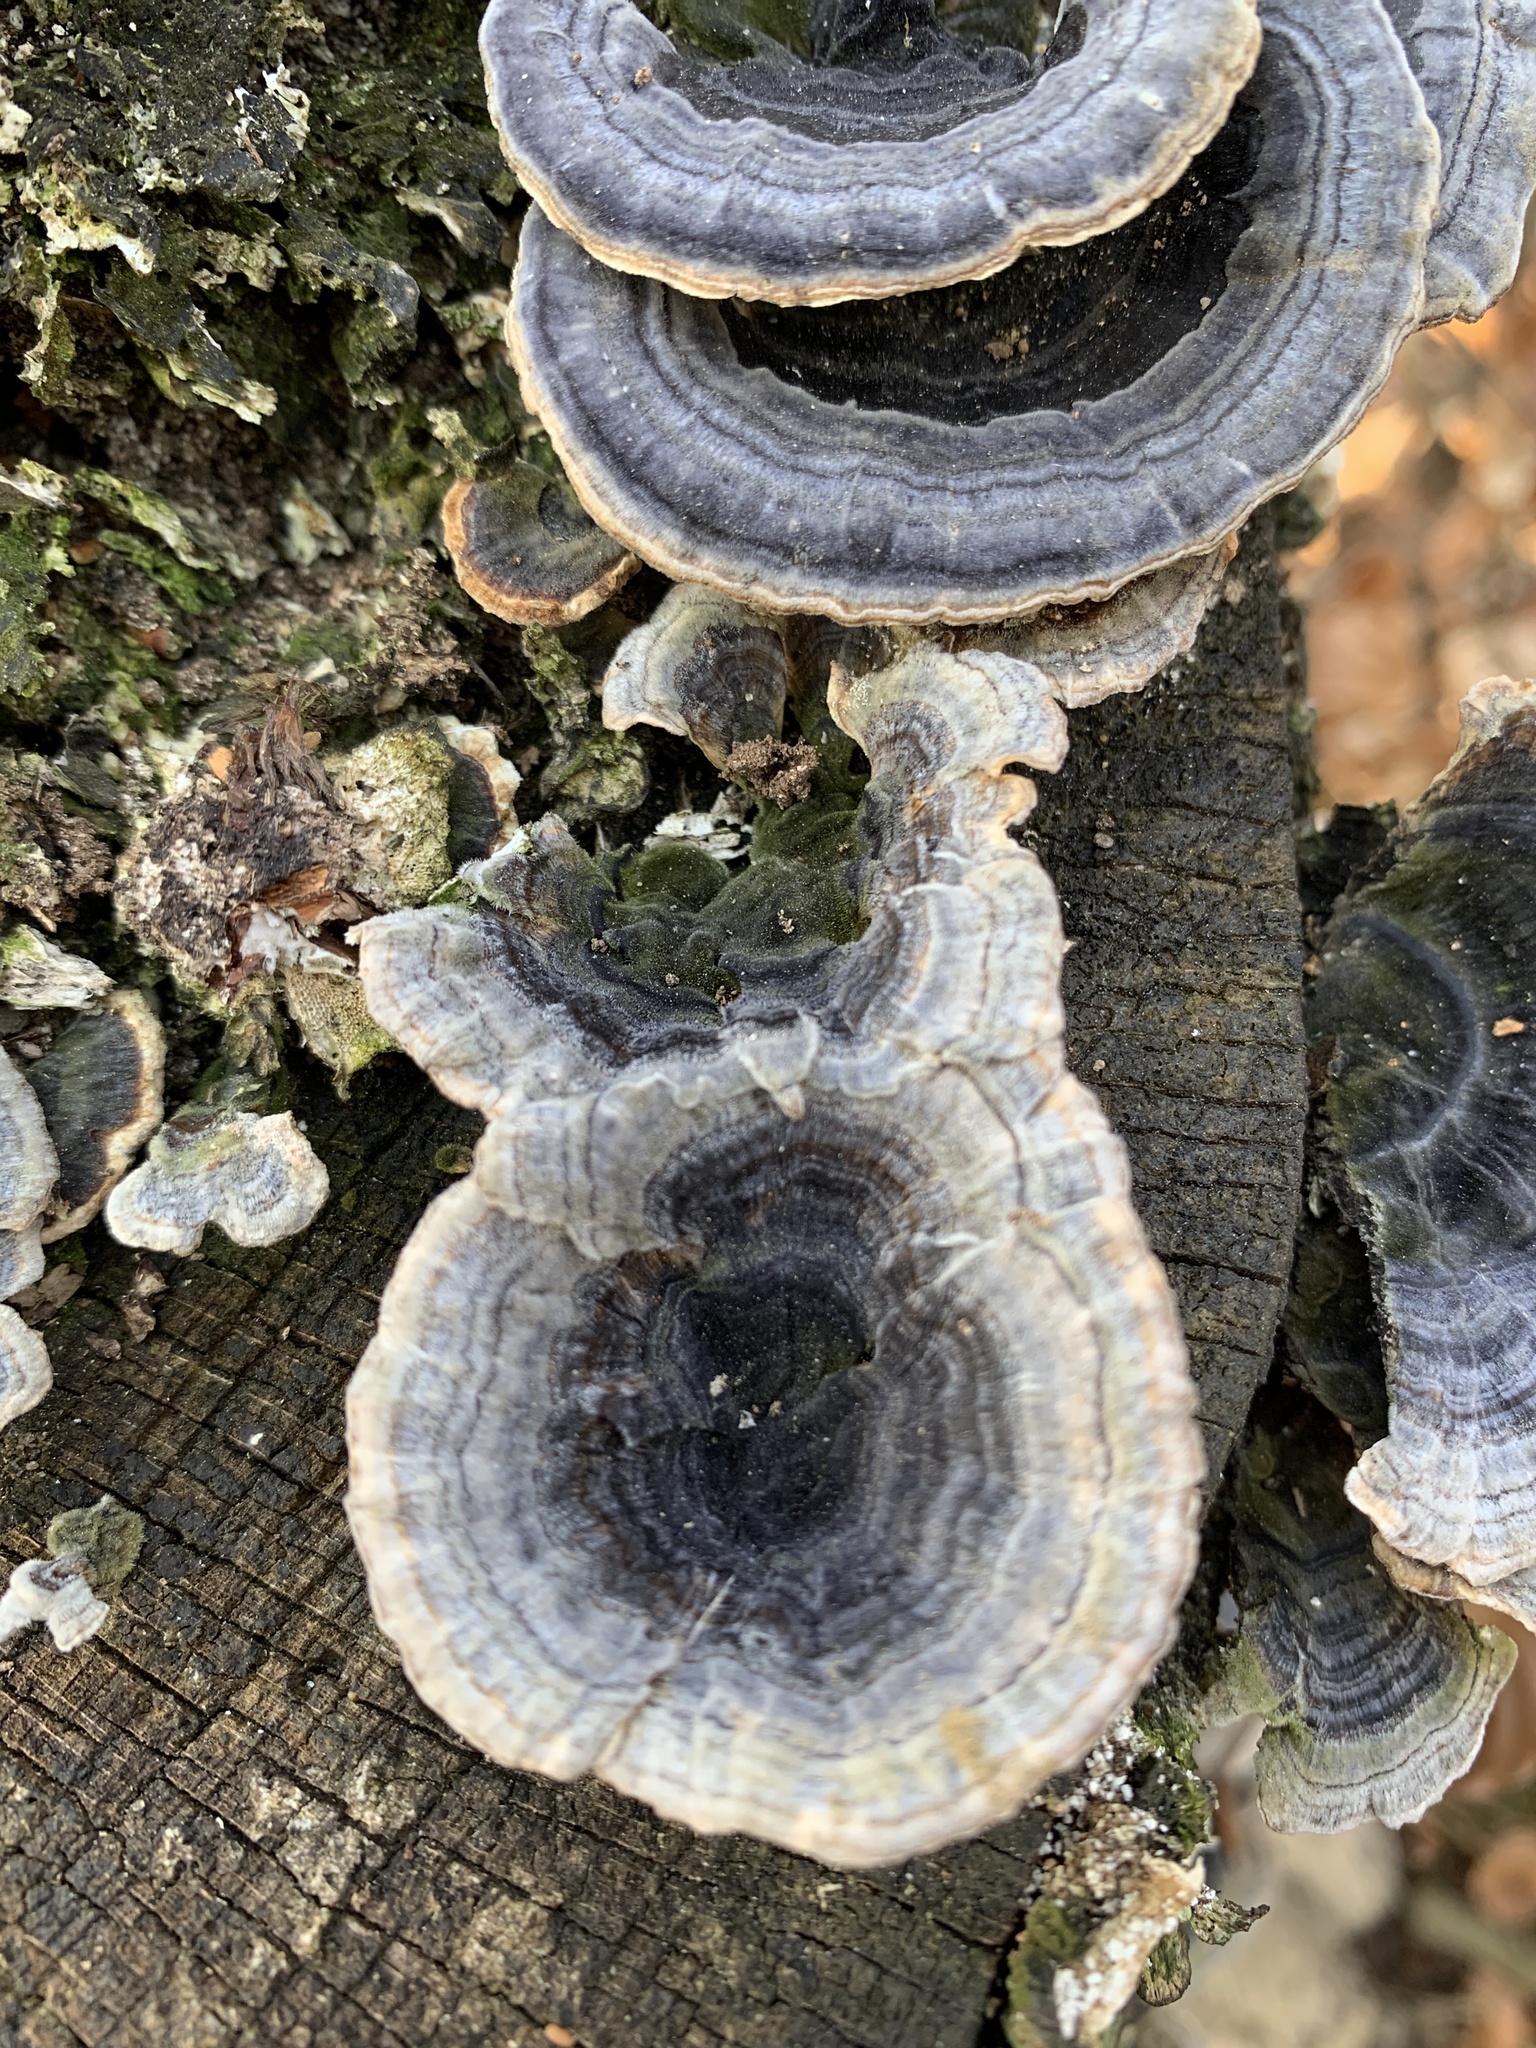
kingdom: Fungi
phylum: Basidiomycota
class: Agaricomycetes
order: Polyporales
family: Polyporaceae
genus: Trametes
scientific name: Trametes versicolor
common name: Turkeytail
